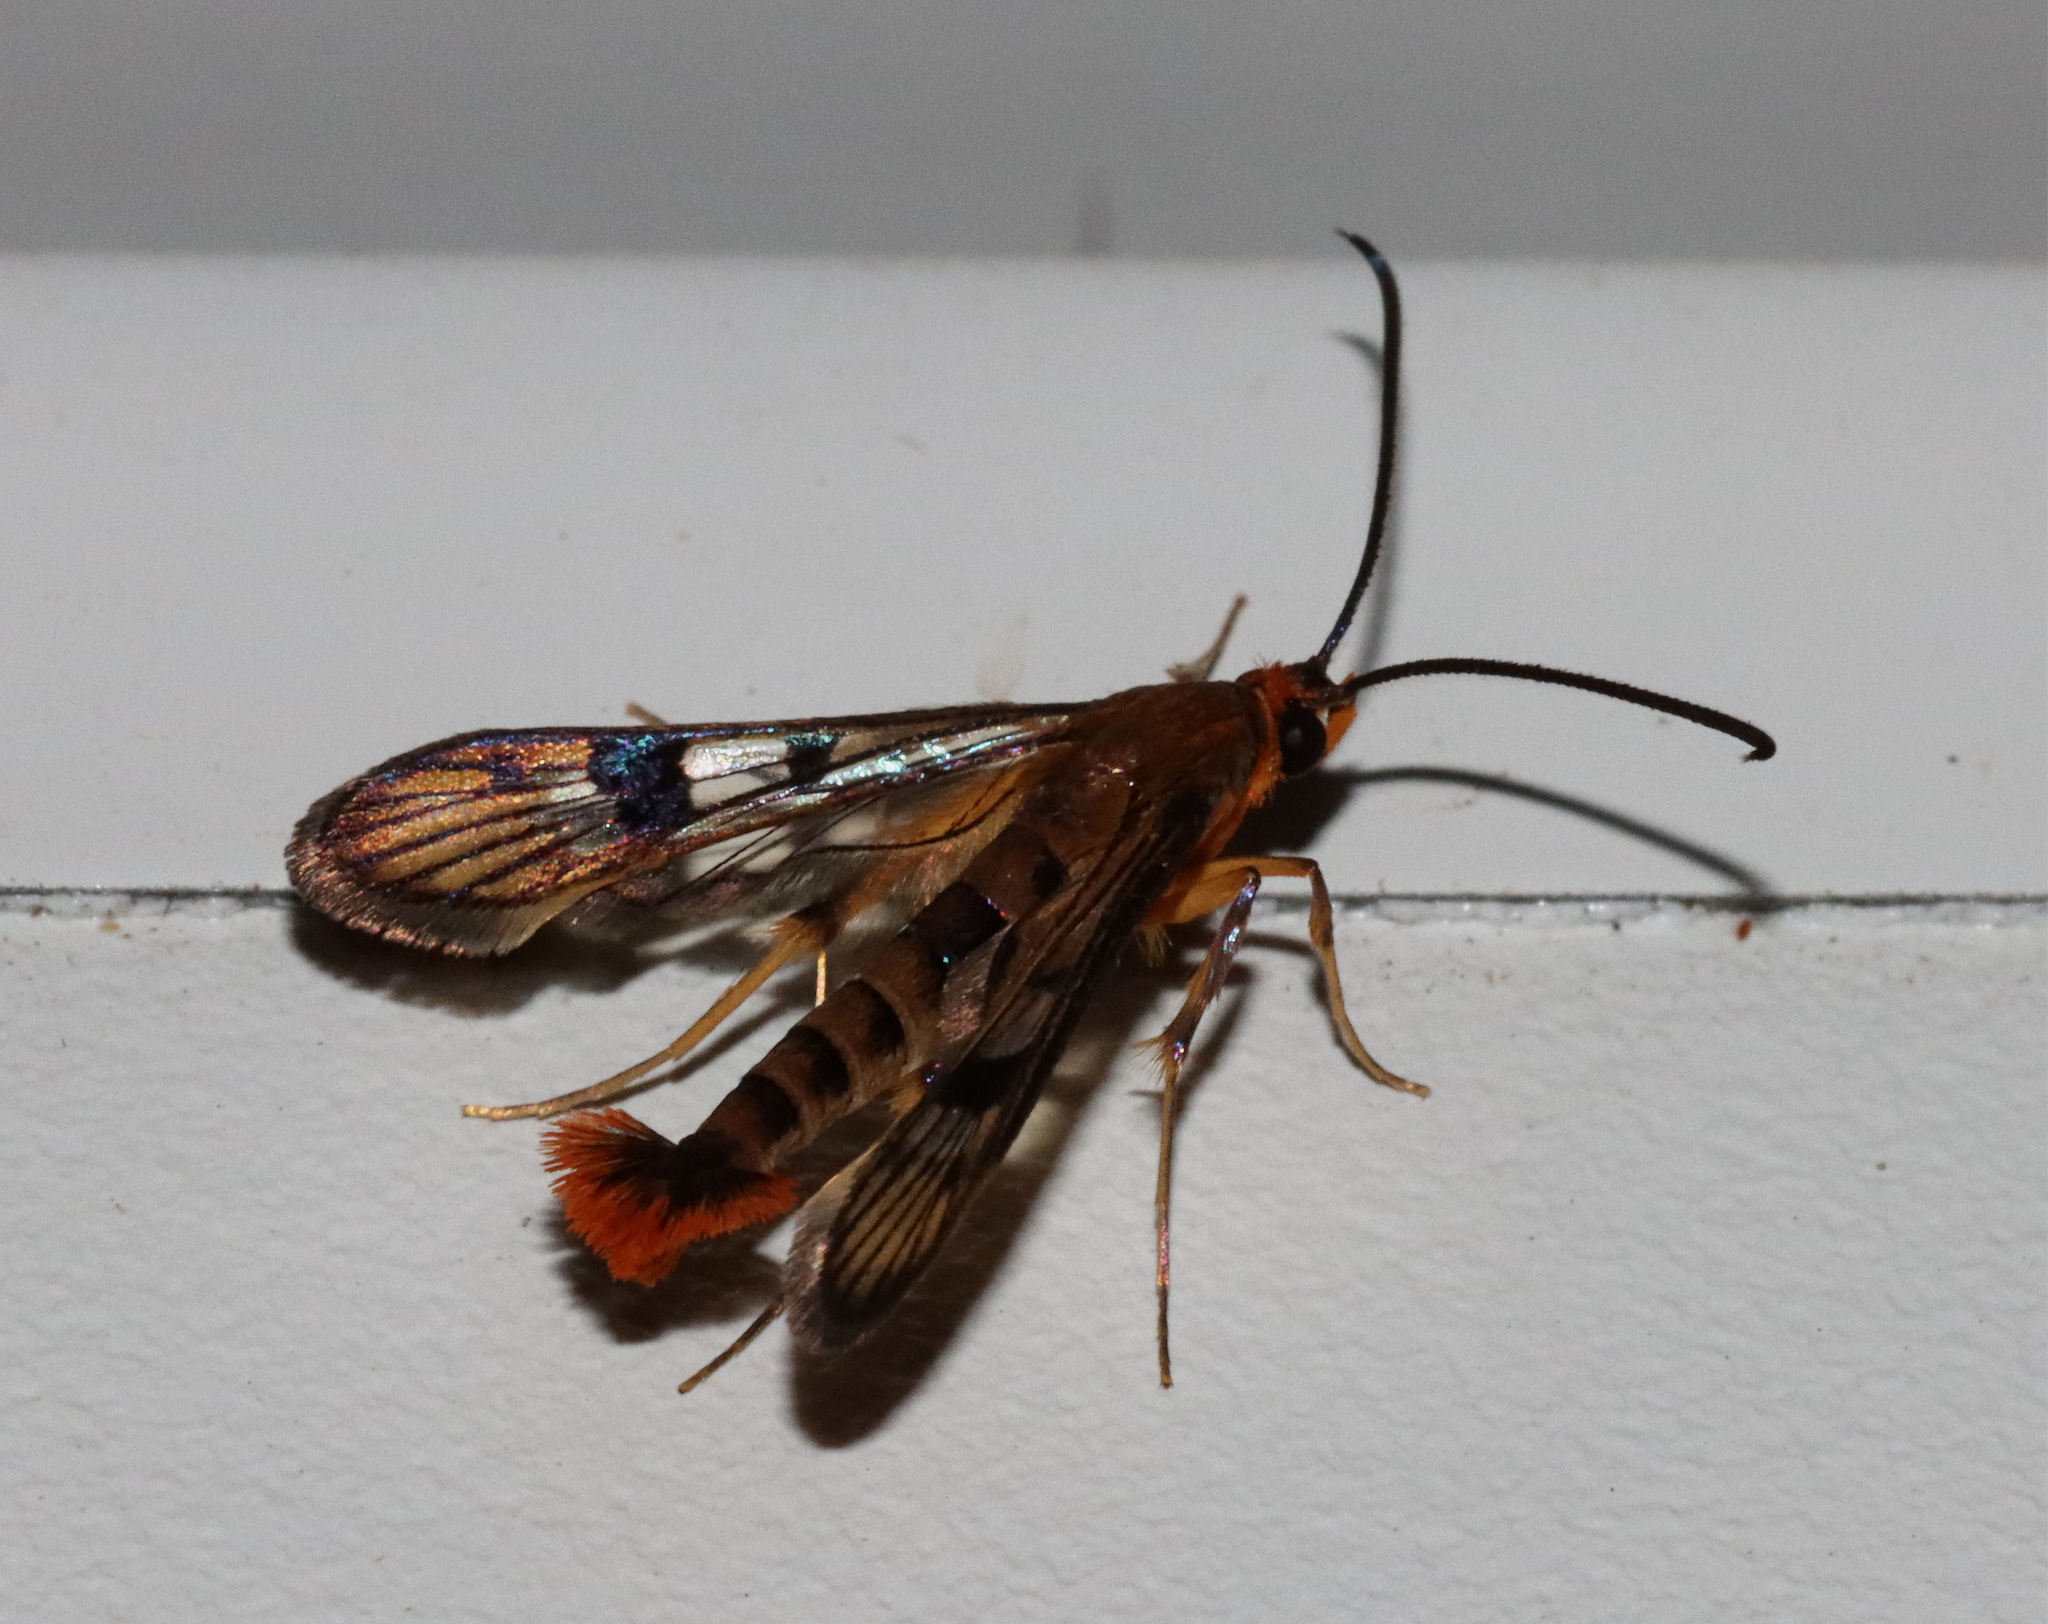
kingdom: Animalia
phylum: Arthropoda
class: Insecta
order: Lepidoptera
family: Sesiidae
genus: Synanthedon
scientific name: Synanthedon acerni
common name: Maple callus borer moth
